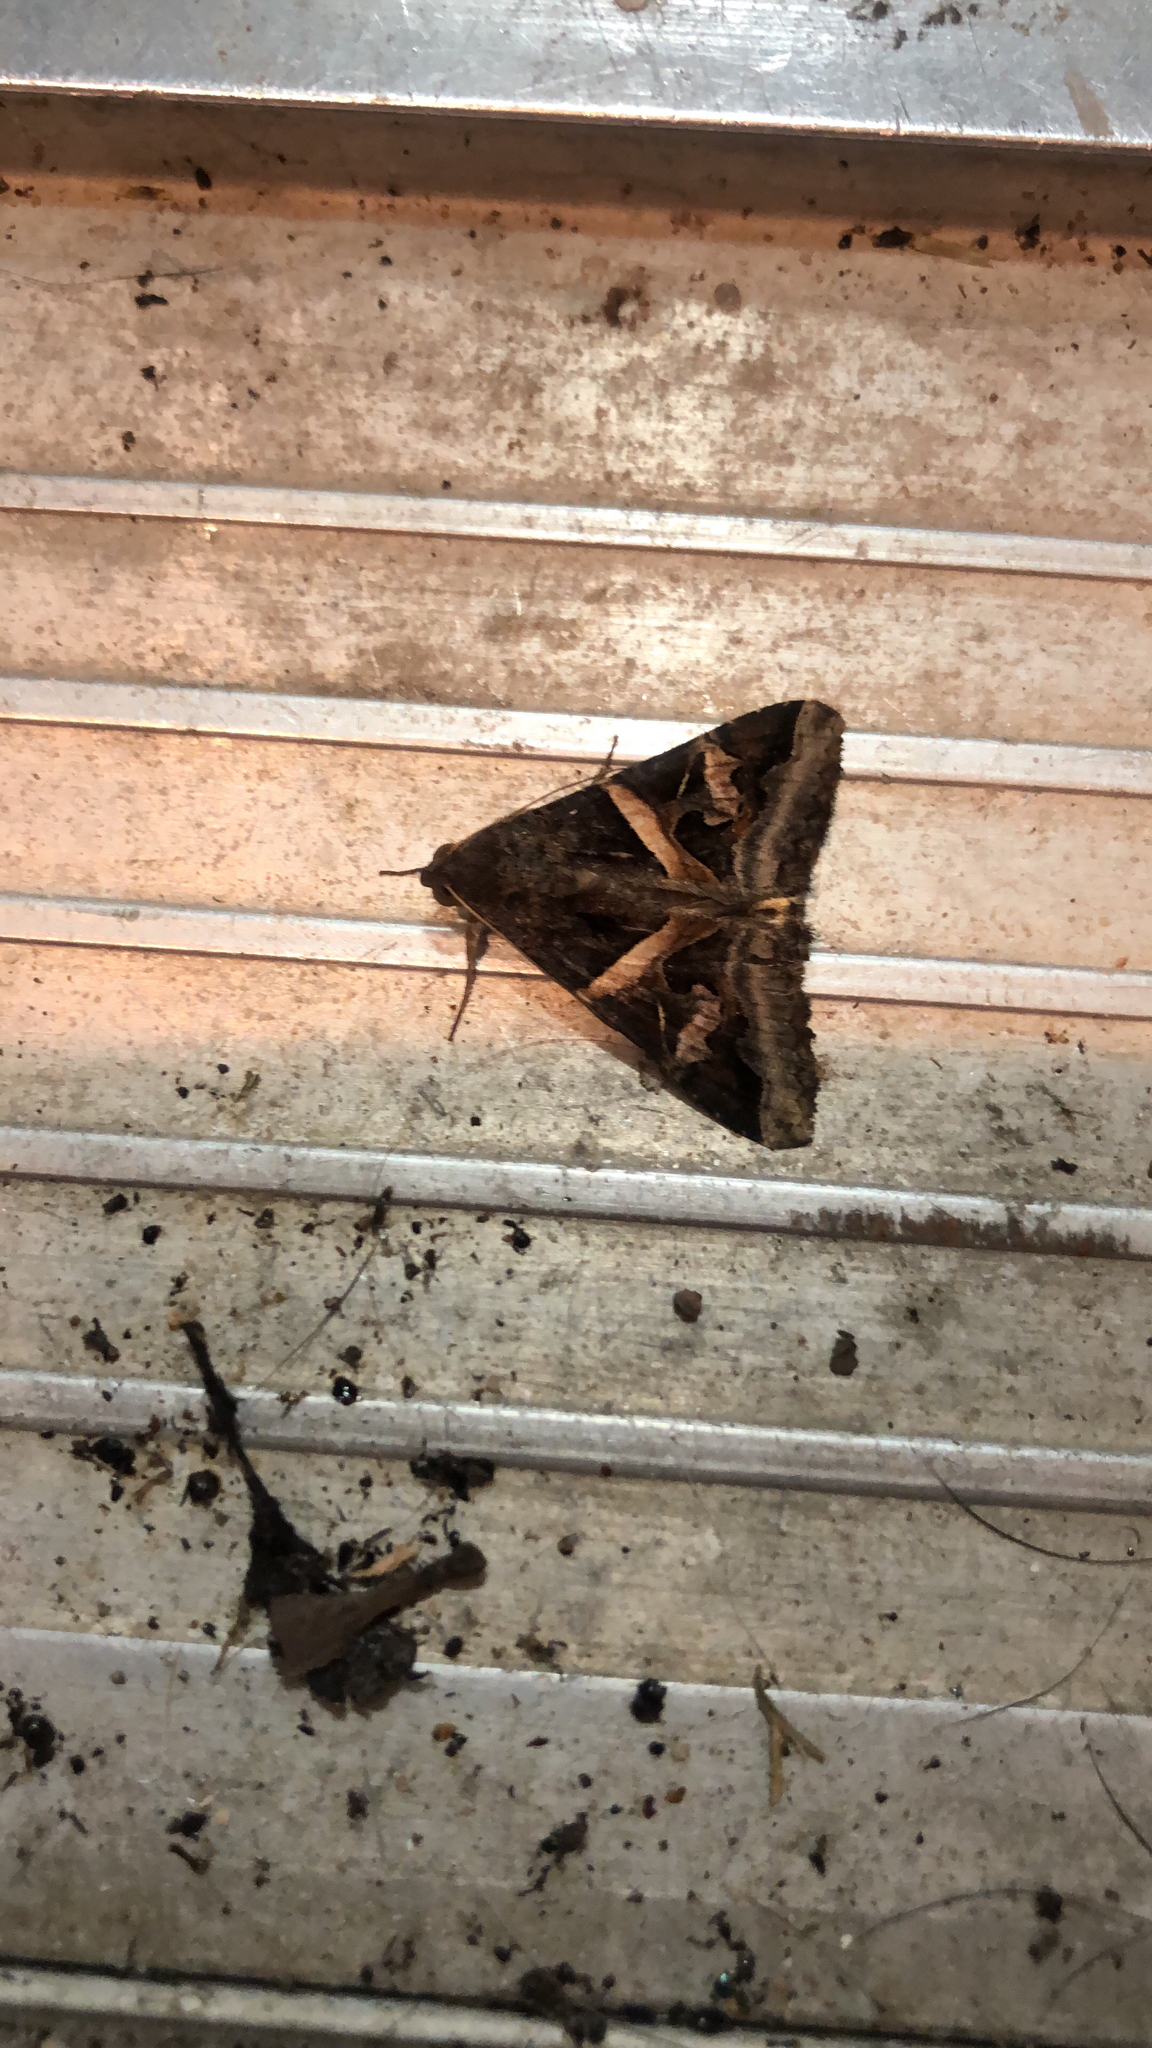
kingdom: Animalia
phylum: Arthropoda
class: Insecta
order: Lepidoptera
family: Erebidae
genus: Melipotis
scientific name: Melipotis indomita
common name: Moth
